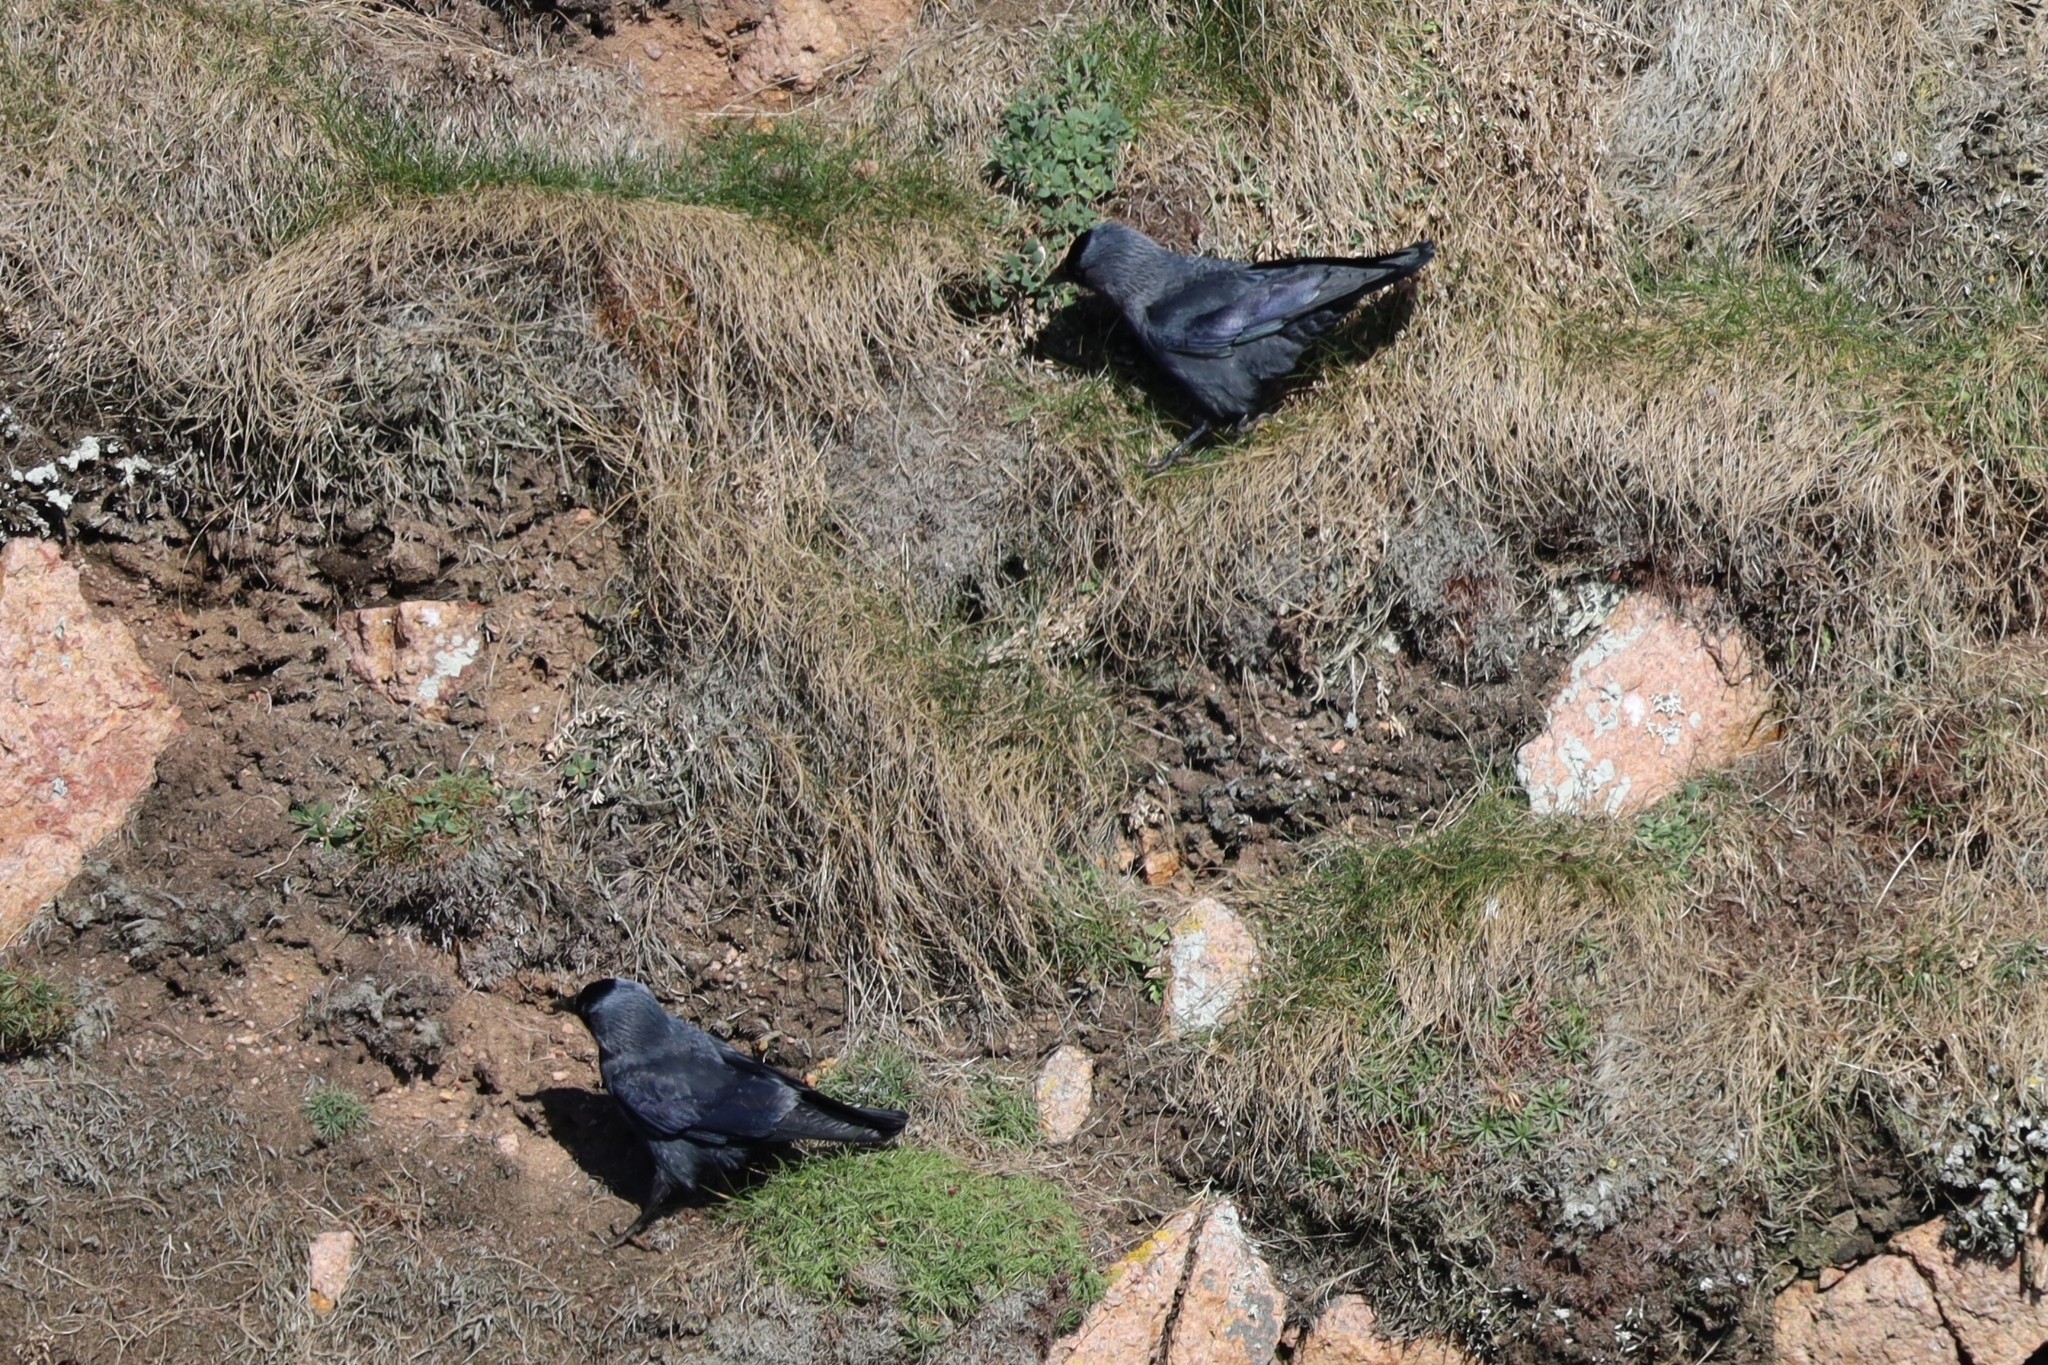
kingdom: Animalia
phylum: Chordata
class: Aves
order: Passeriformes
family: Corvidae
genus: Coloeus
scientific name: Coloeus monedula
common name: Western jackdaw
